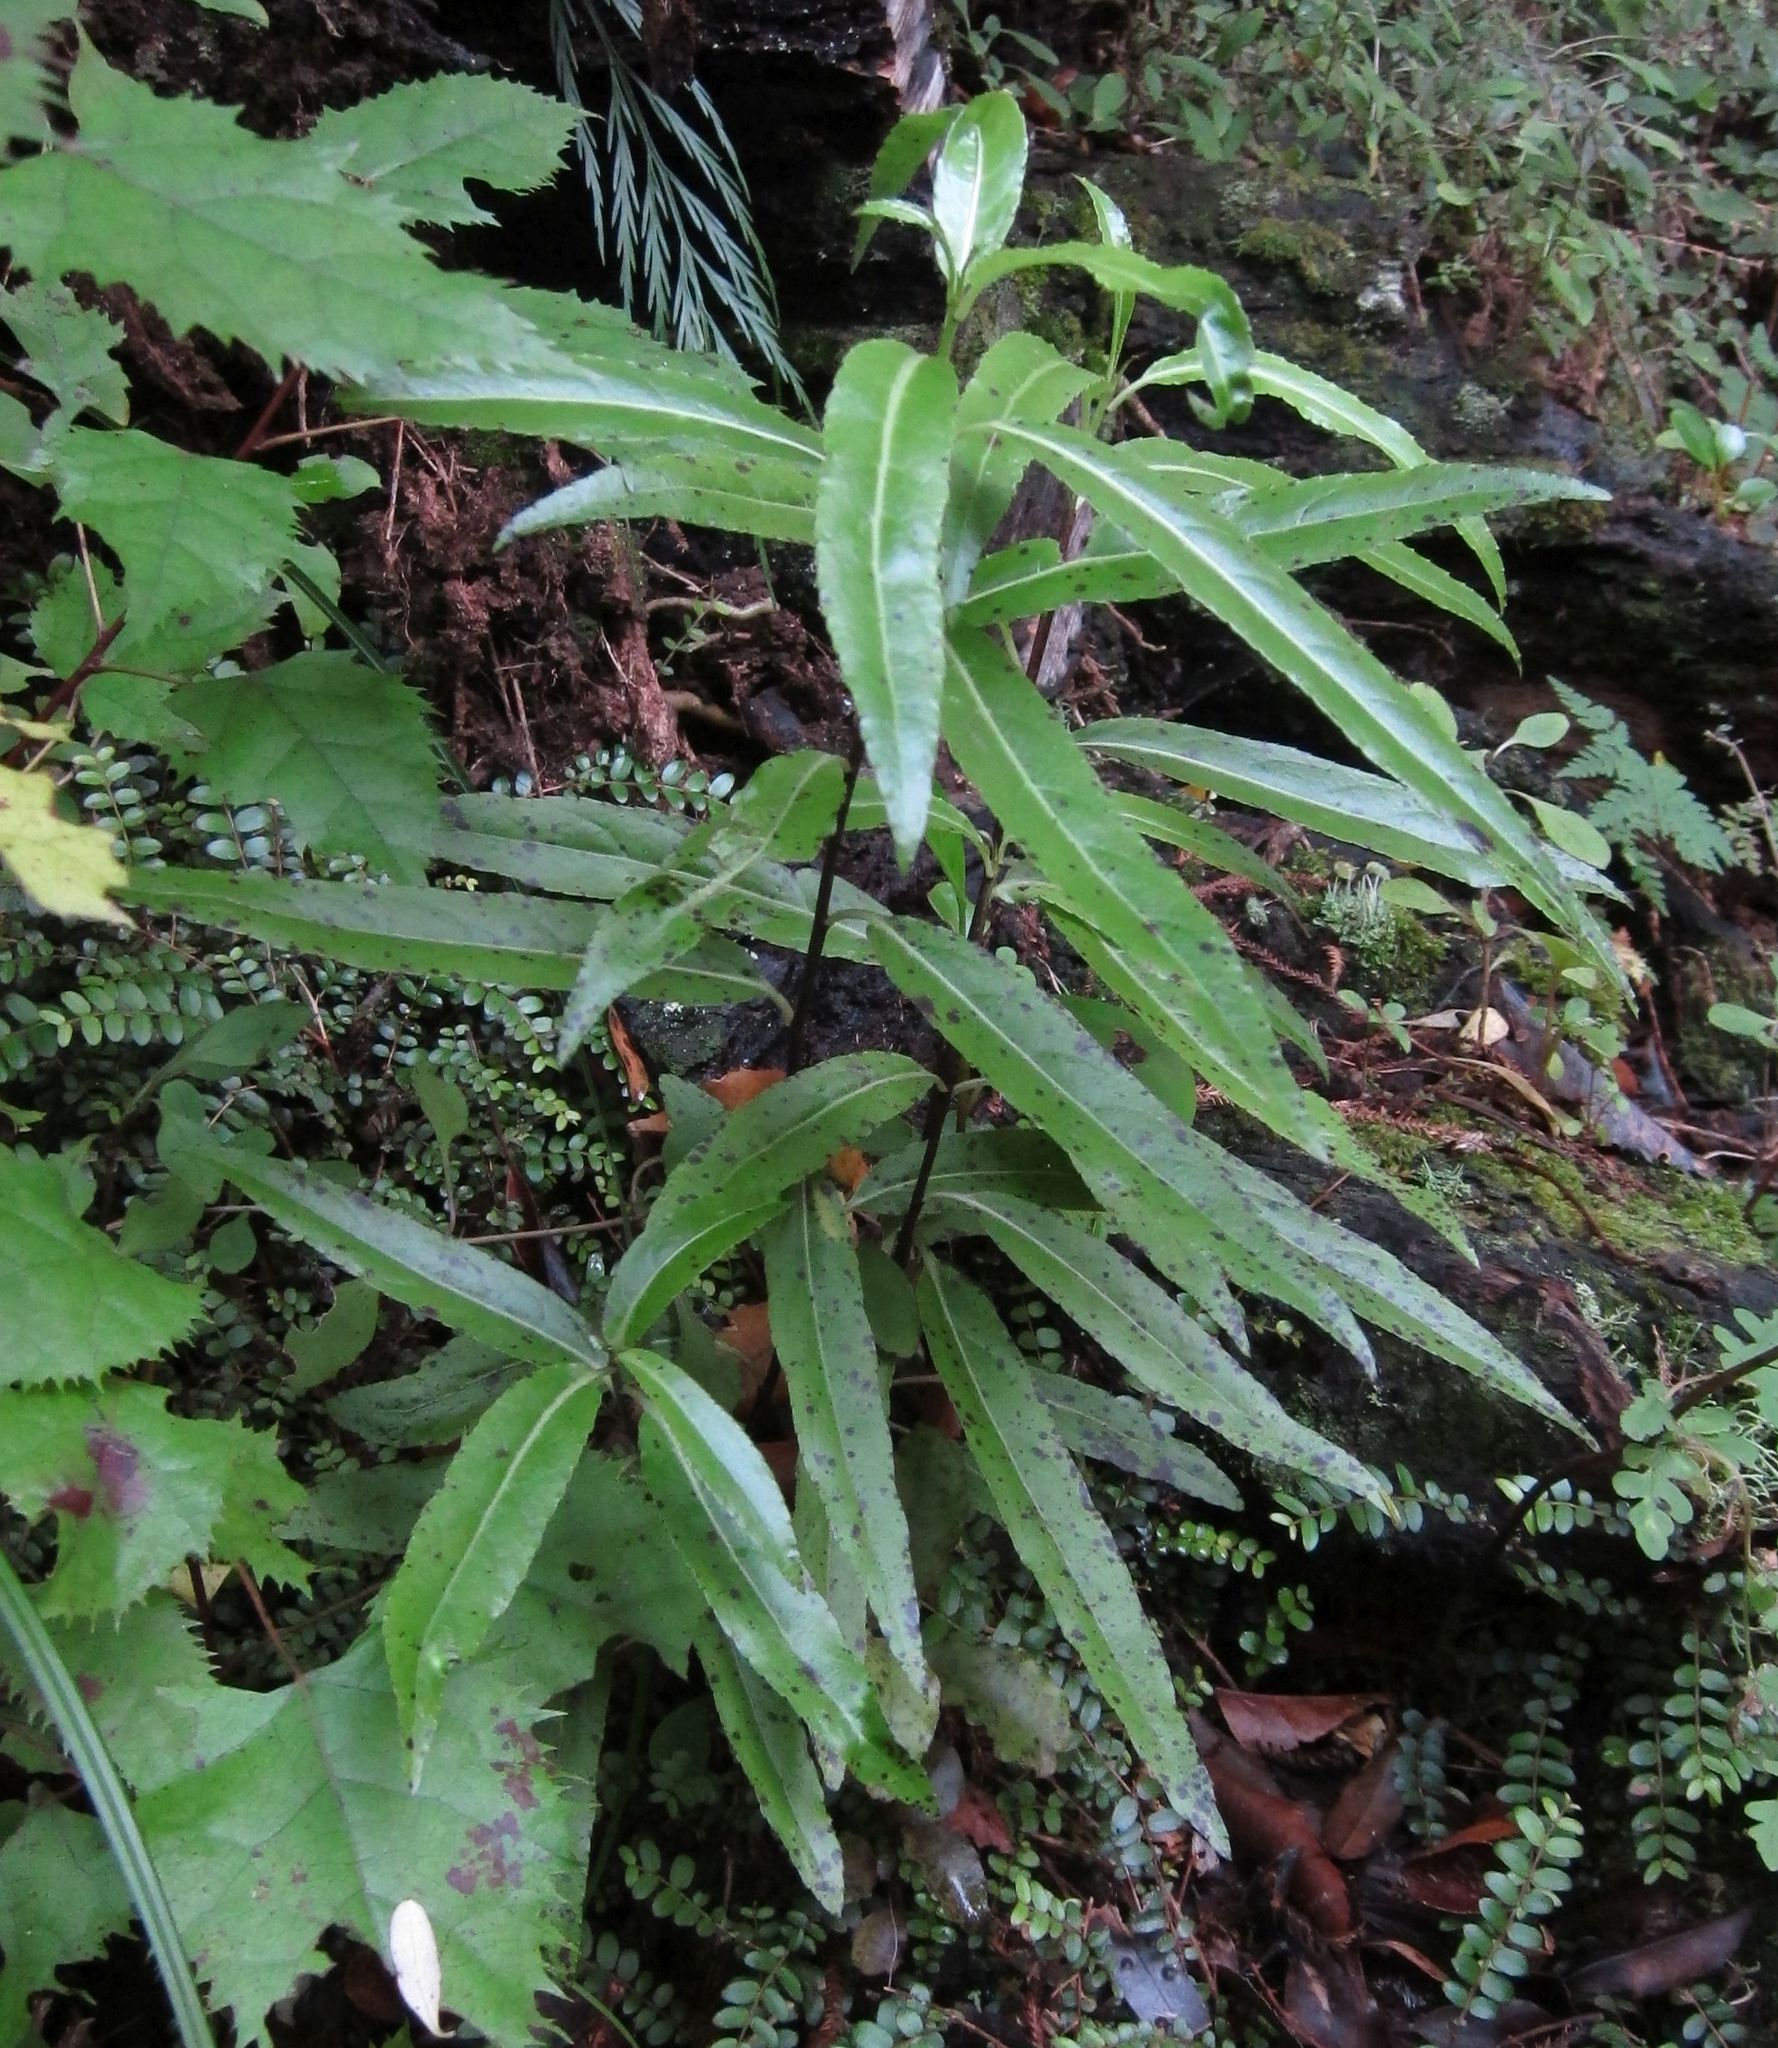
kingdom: Plantae
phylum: Tracheophyta
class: Magnoliopsida
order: Malpighiales
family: Violaceae
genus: Melicytus
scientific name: Melicytus lanceolatus
